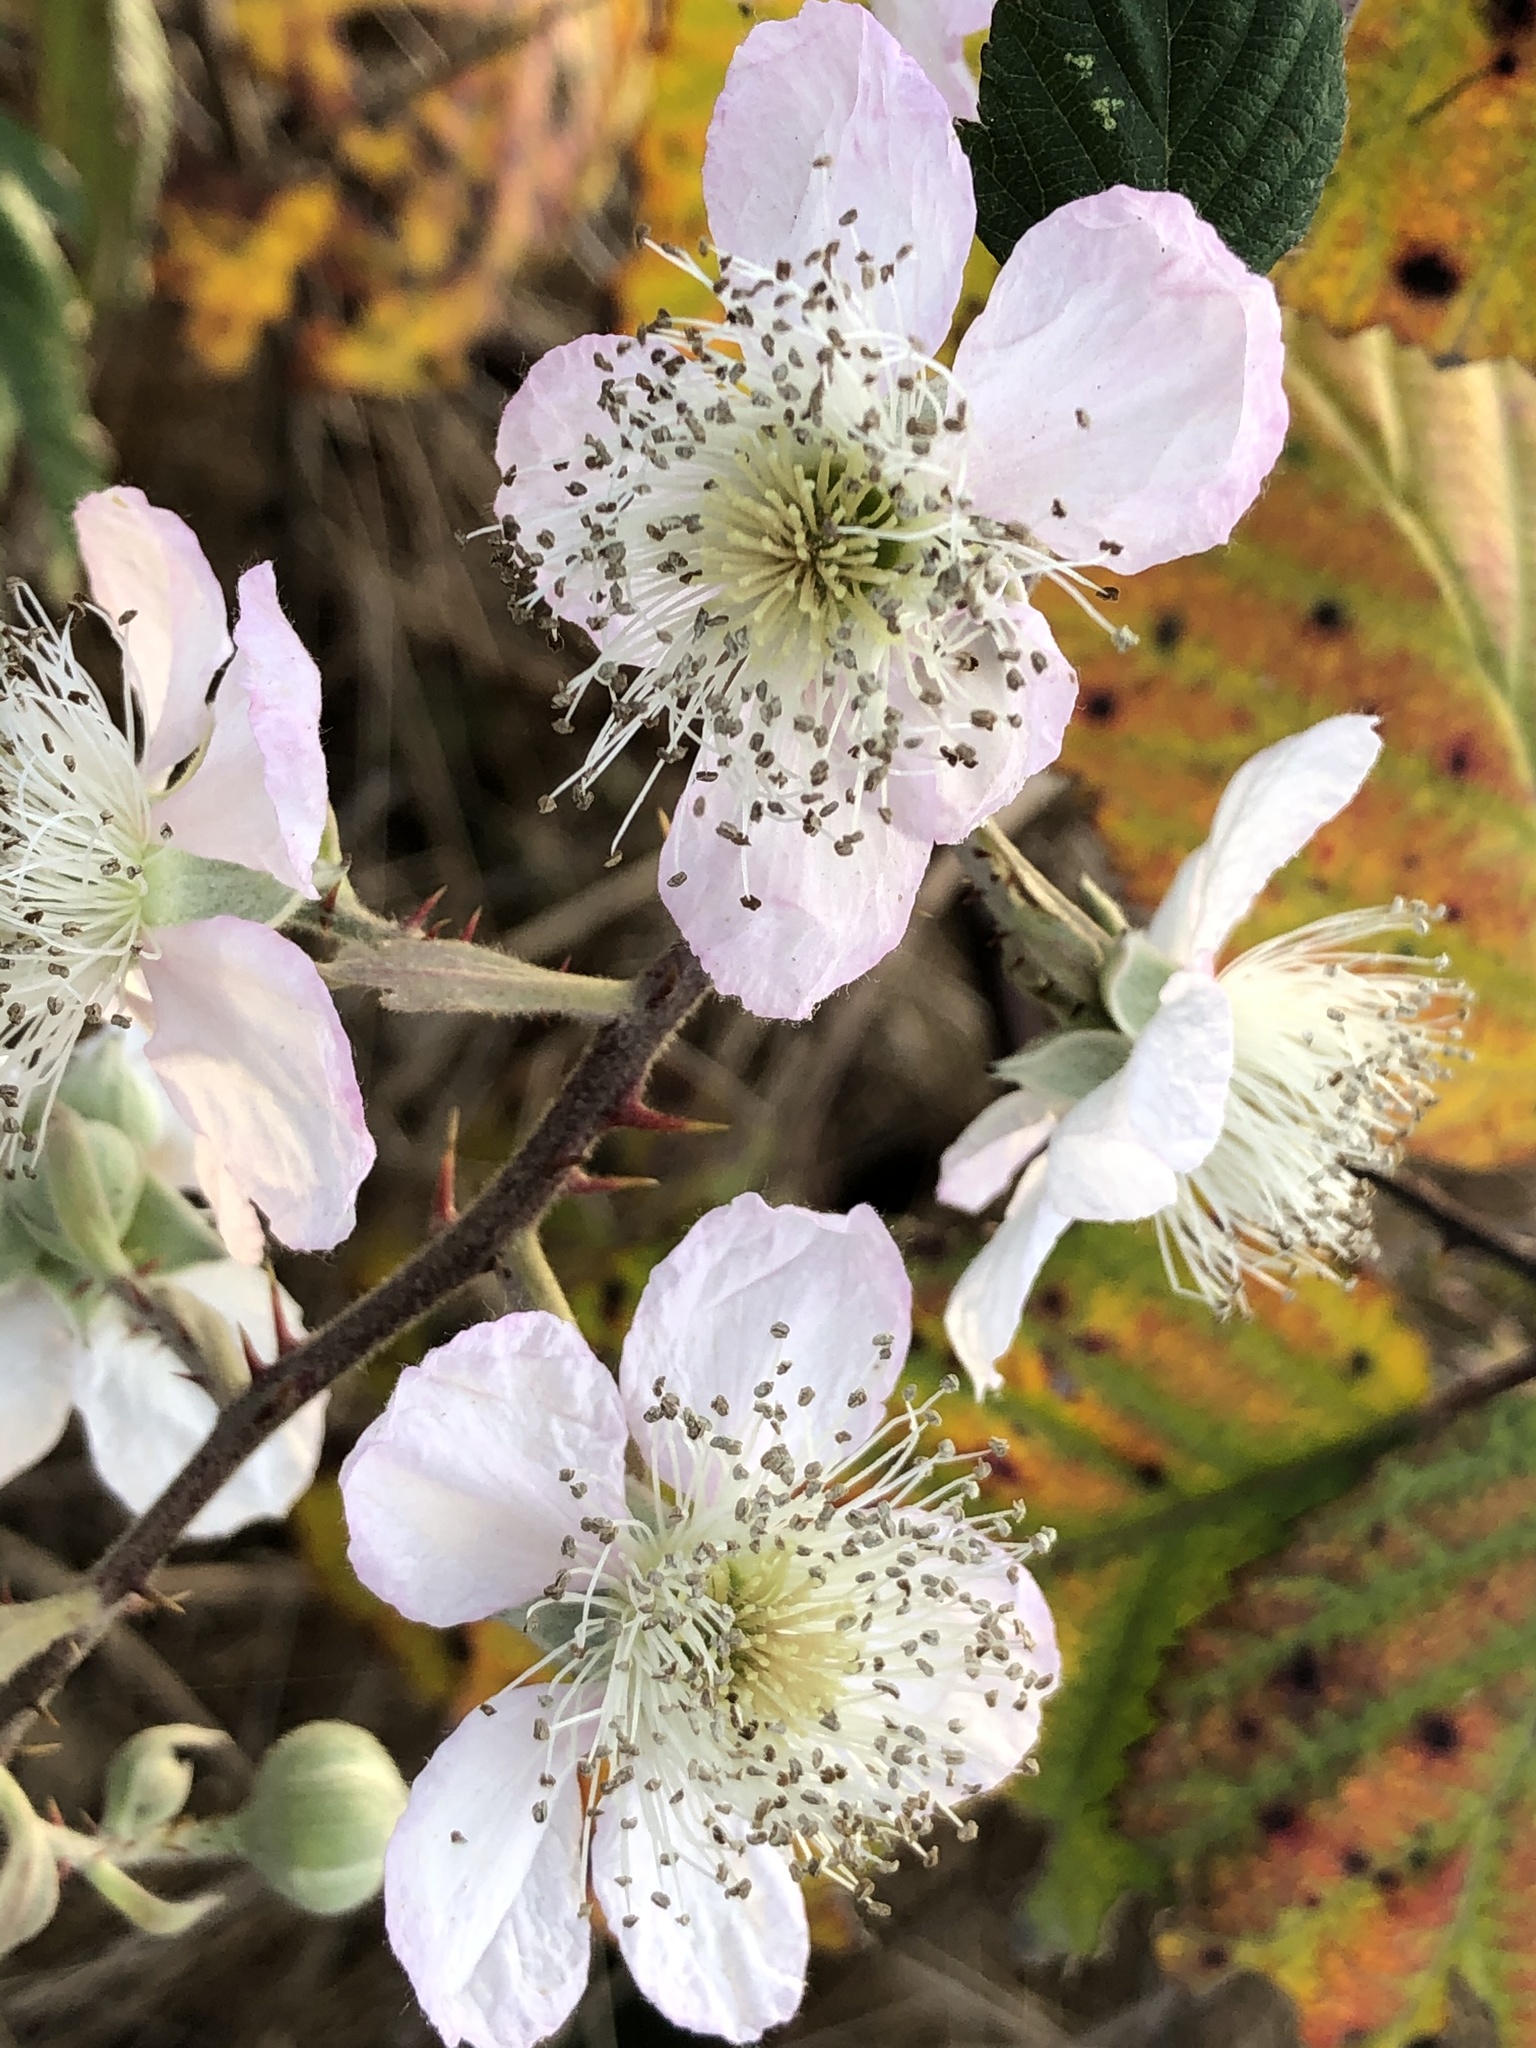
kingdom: Plantae
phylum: Tracheophyta
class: Magnoliopsida
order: Rosales
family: Rosaceae
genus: Rubus
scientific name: Rubus bifrons
